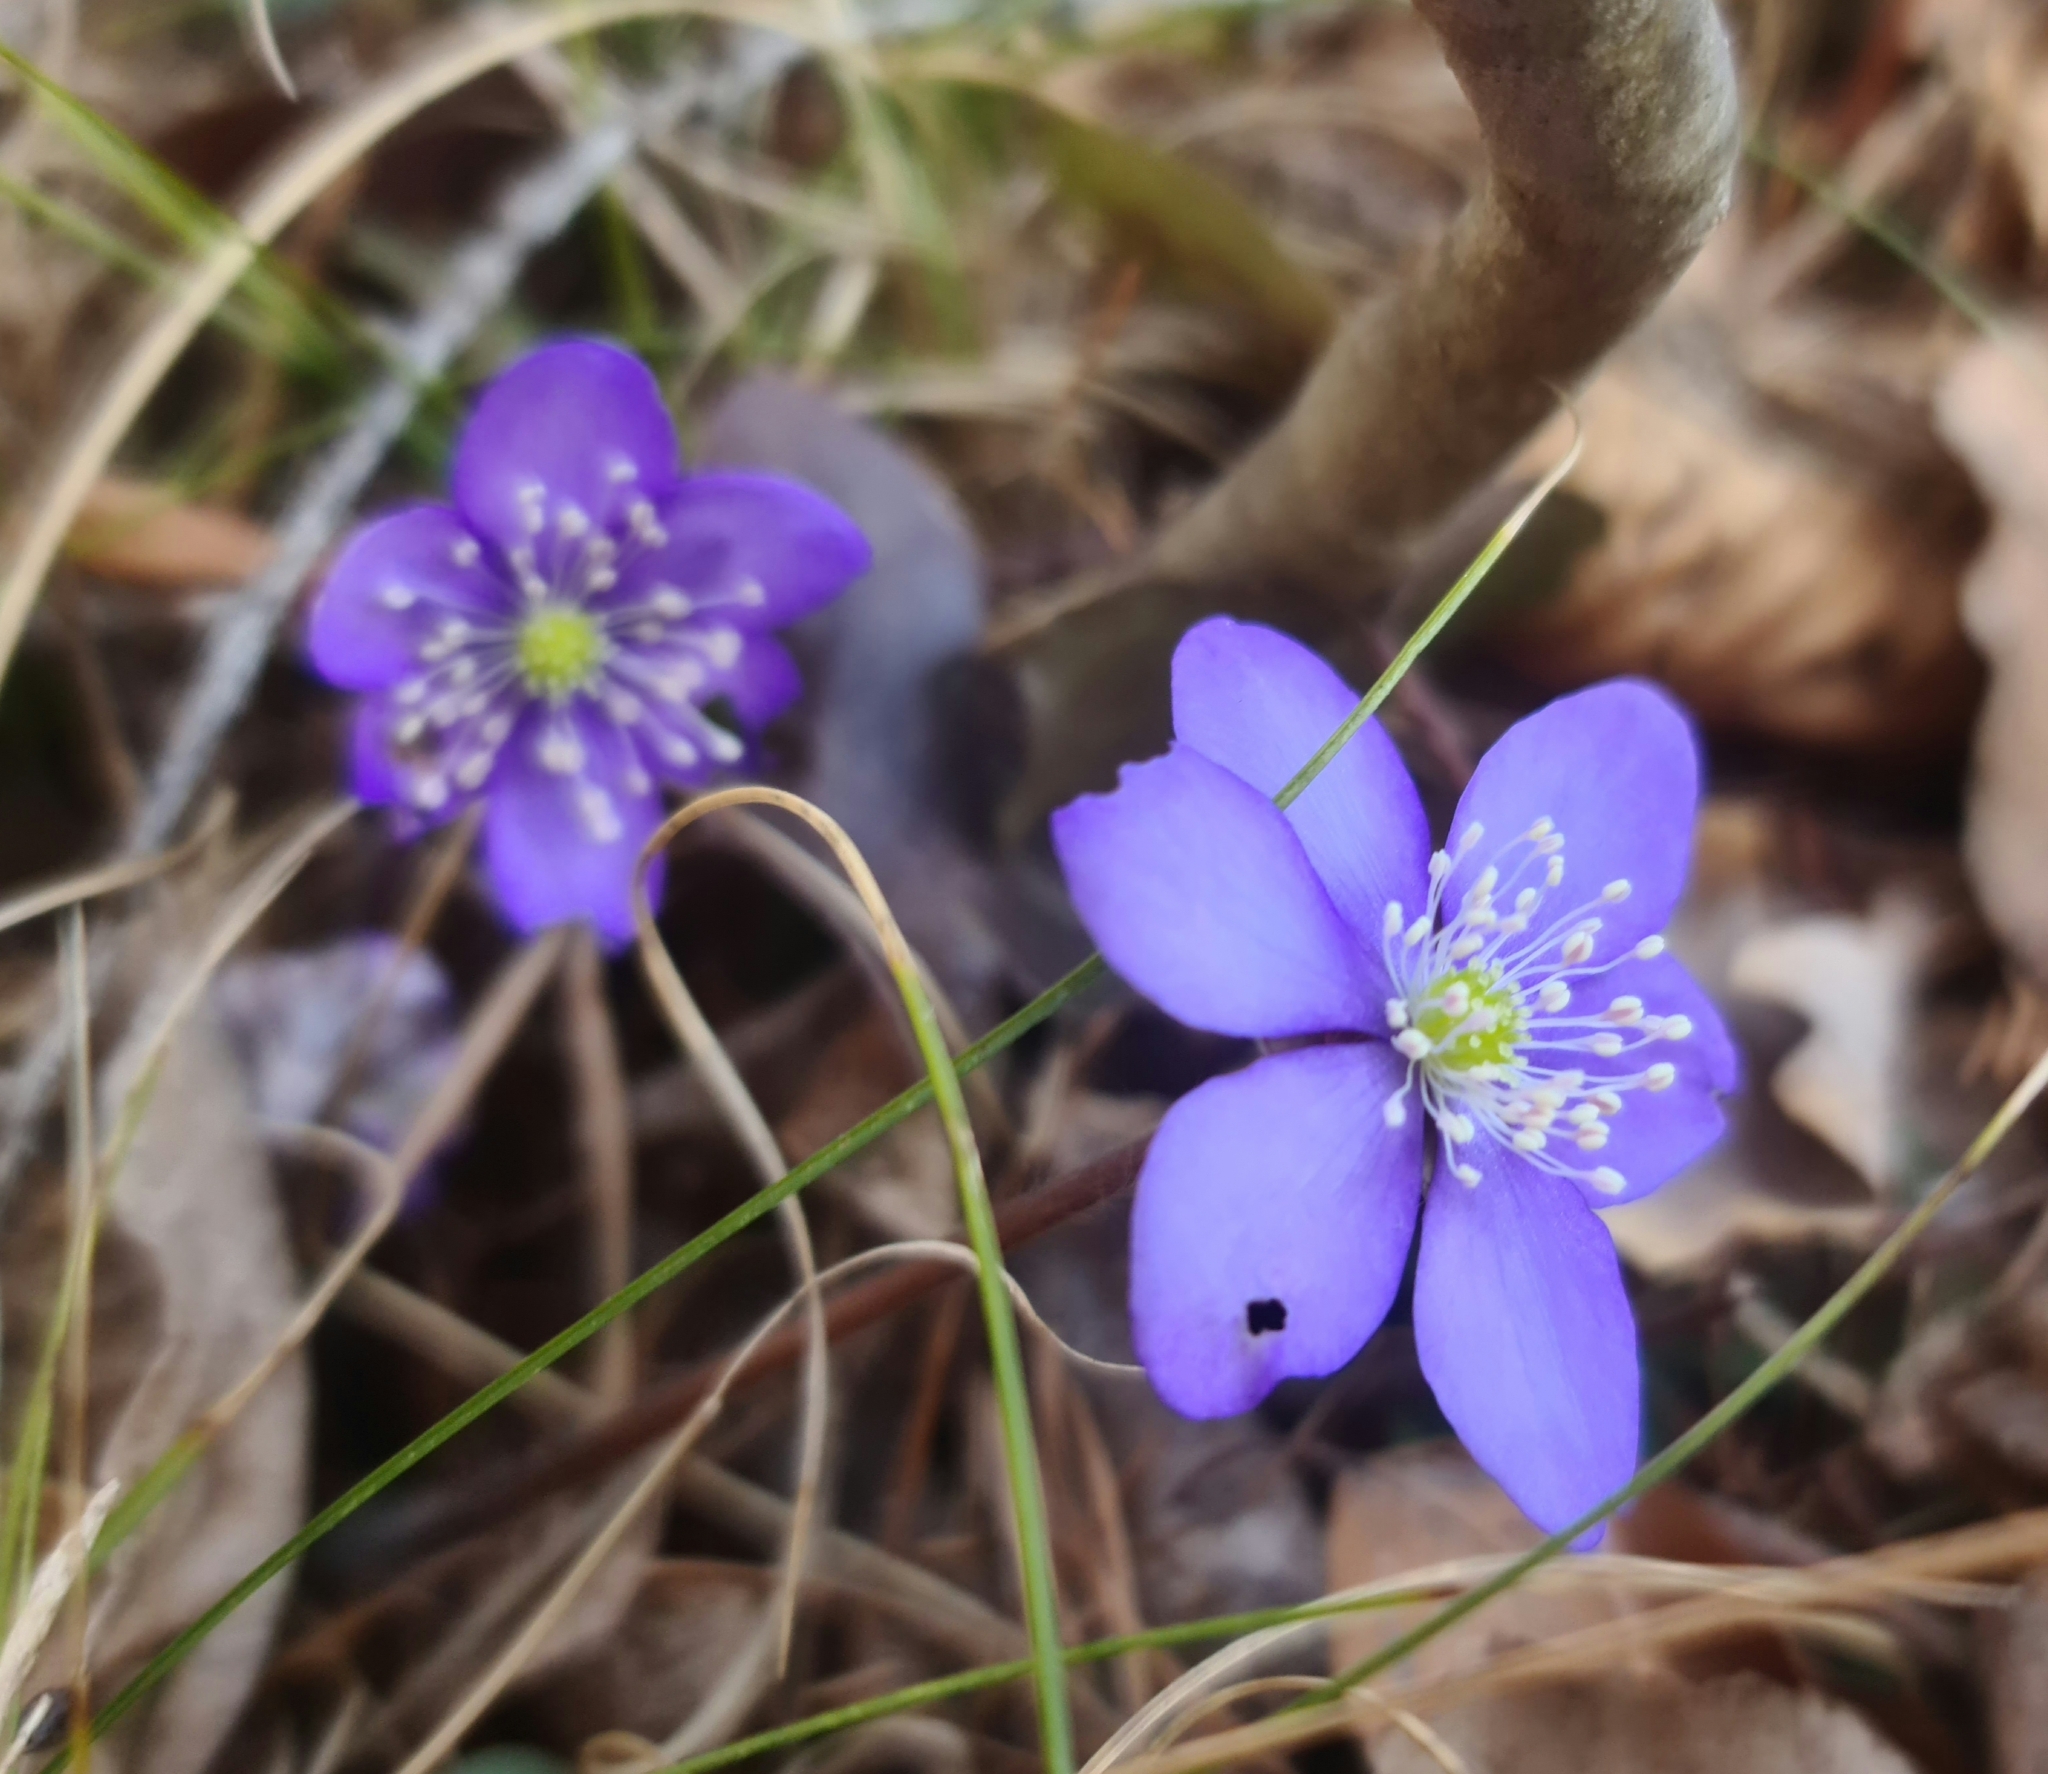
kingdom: Plantae
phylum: Tracheophyta
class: Magnoliopsida
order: Ranunculales
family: Ranunculaceae
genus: Hepatica
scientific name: Hepatica nobilis
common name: Liverleaf
